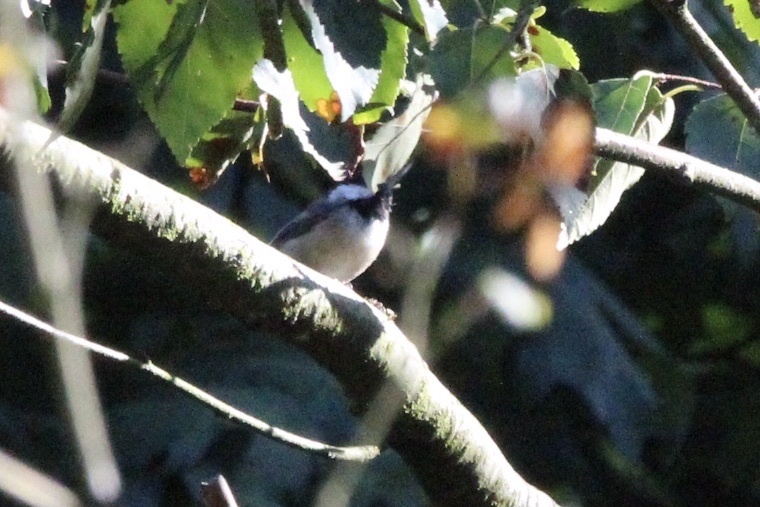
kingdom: Animalia
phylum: Chordata
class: Aves
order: Passeriformes
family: Paridae
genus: Poecile
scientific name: Poecile atricapillus
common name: Black-capped chickadee
